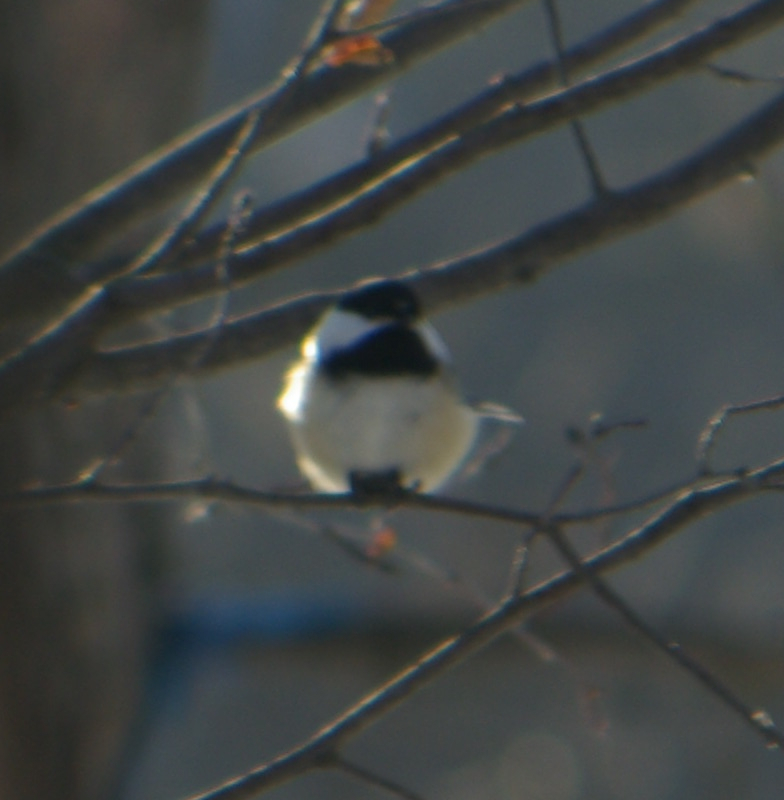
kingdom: Animalia
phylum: Chordata
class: Aves
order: Passeriformes
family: Paridae
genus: Poecile
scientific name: Poecile atricapillus
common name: Black-capped chickadee
